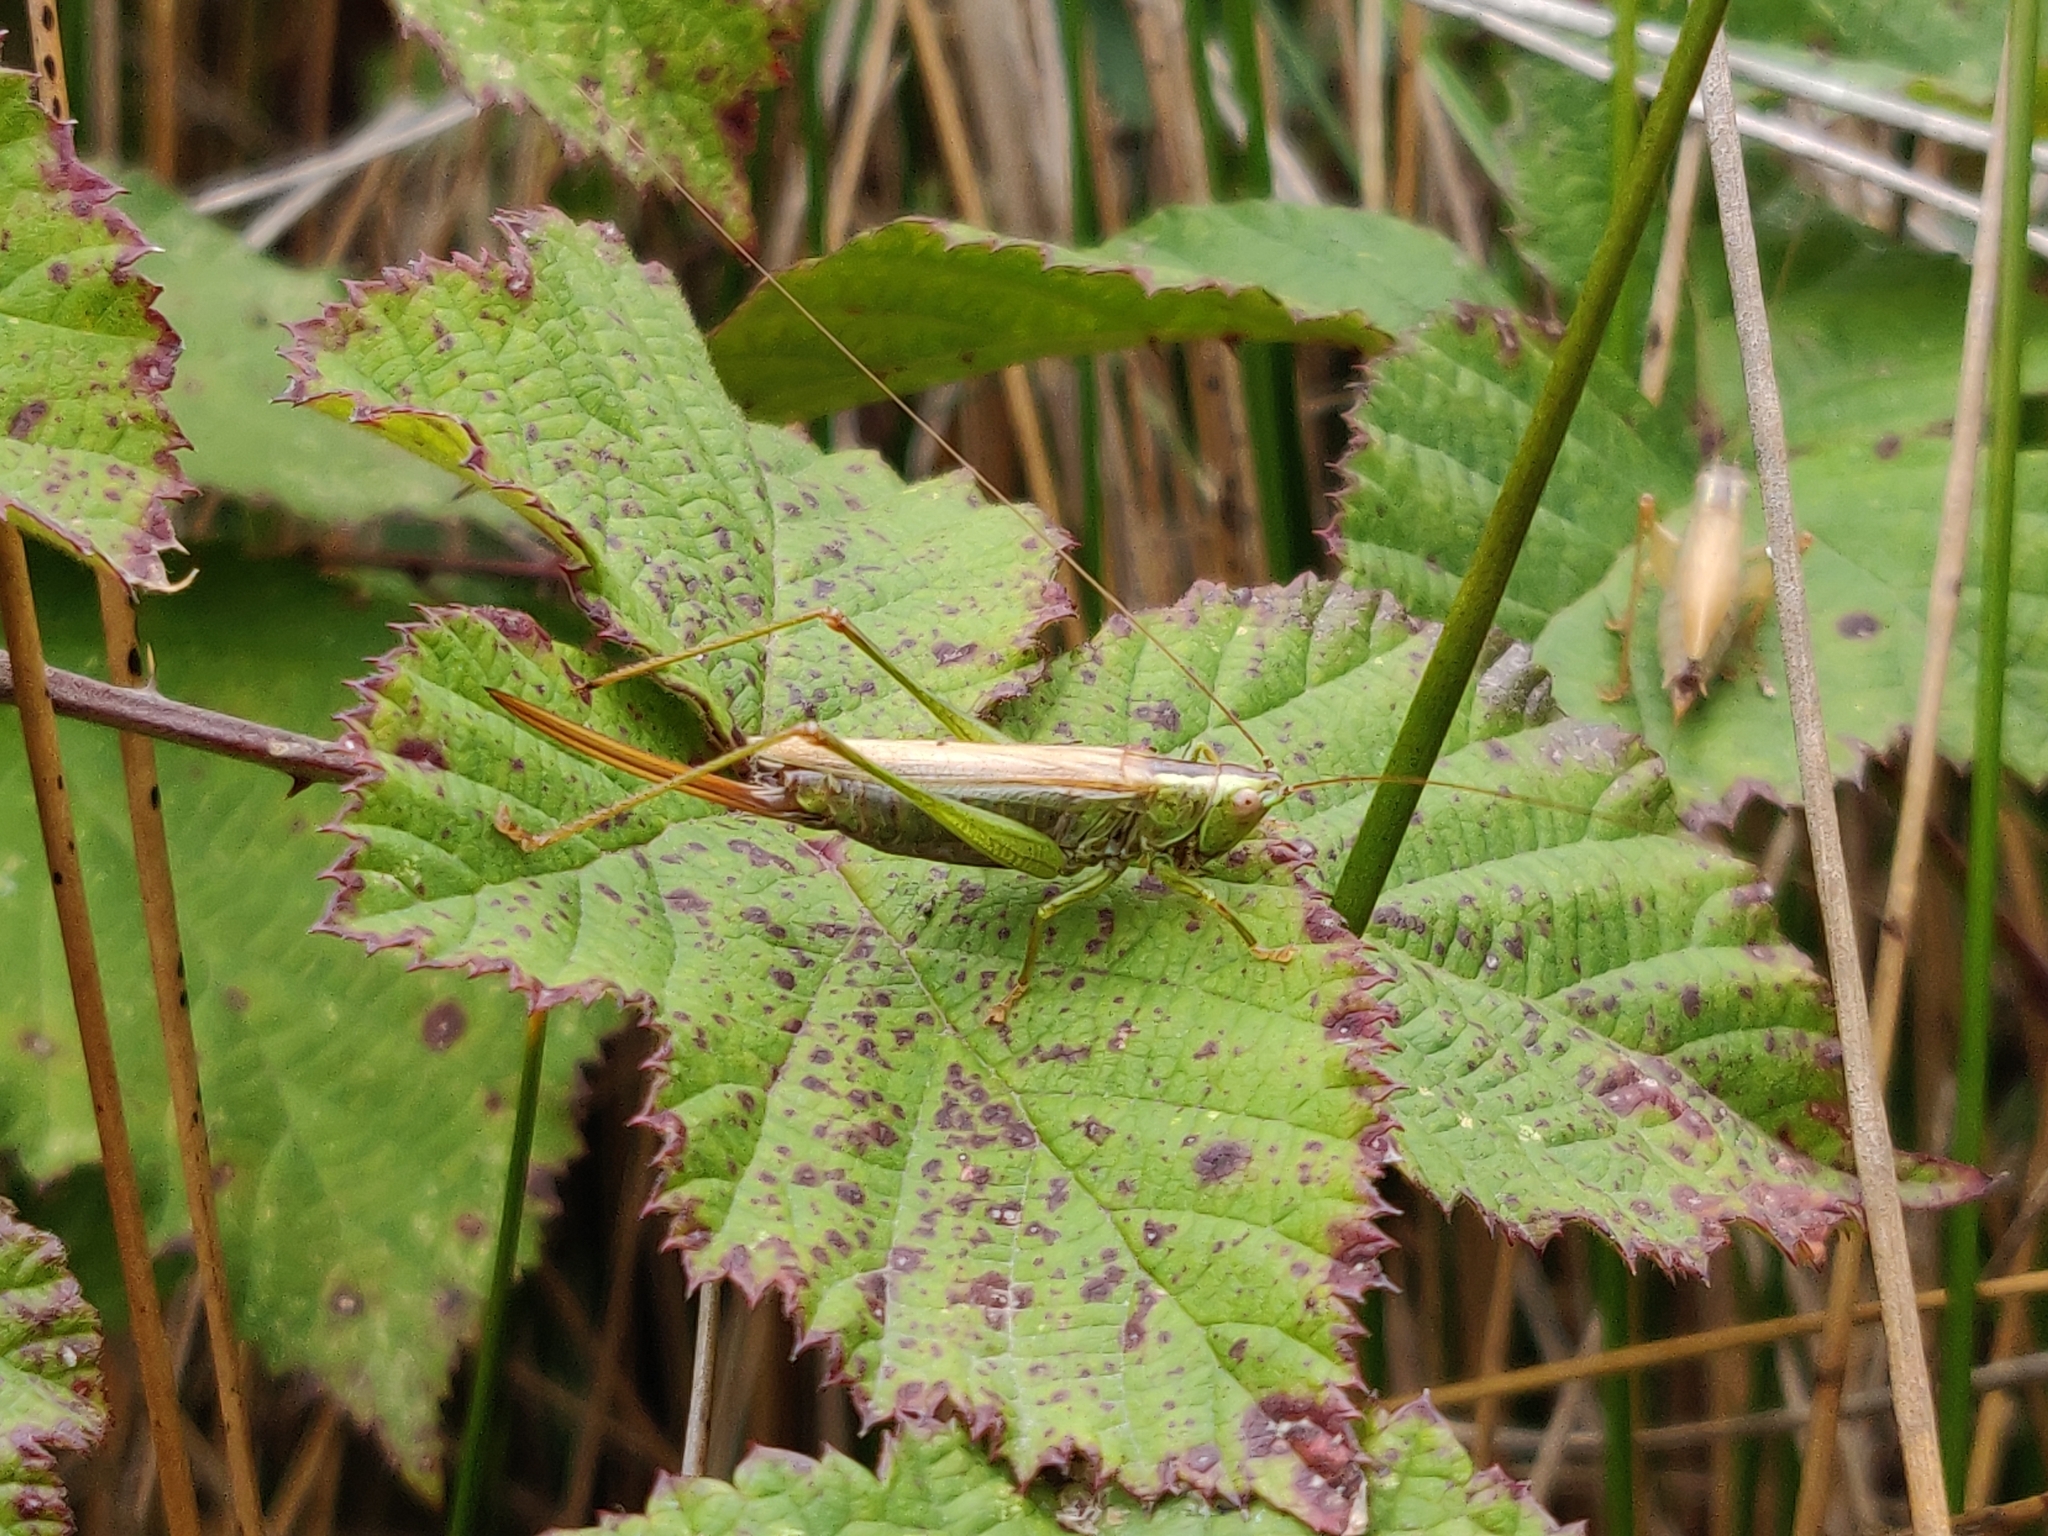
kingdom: Animalia
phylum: Arthropoda
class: Insecta
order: Orthoptera
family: Tettigoniidae
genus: Conocephalus
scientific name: Conocephalus fuscus
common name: Long-winged conehead
